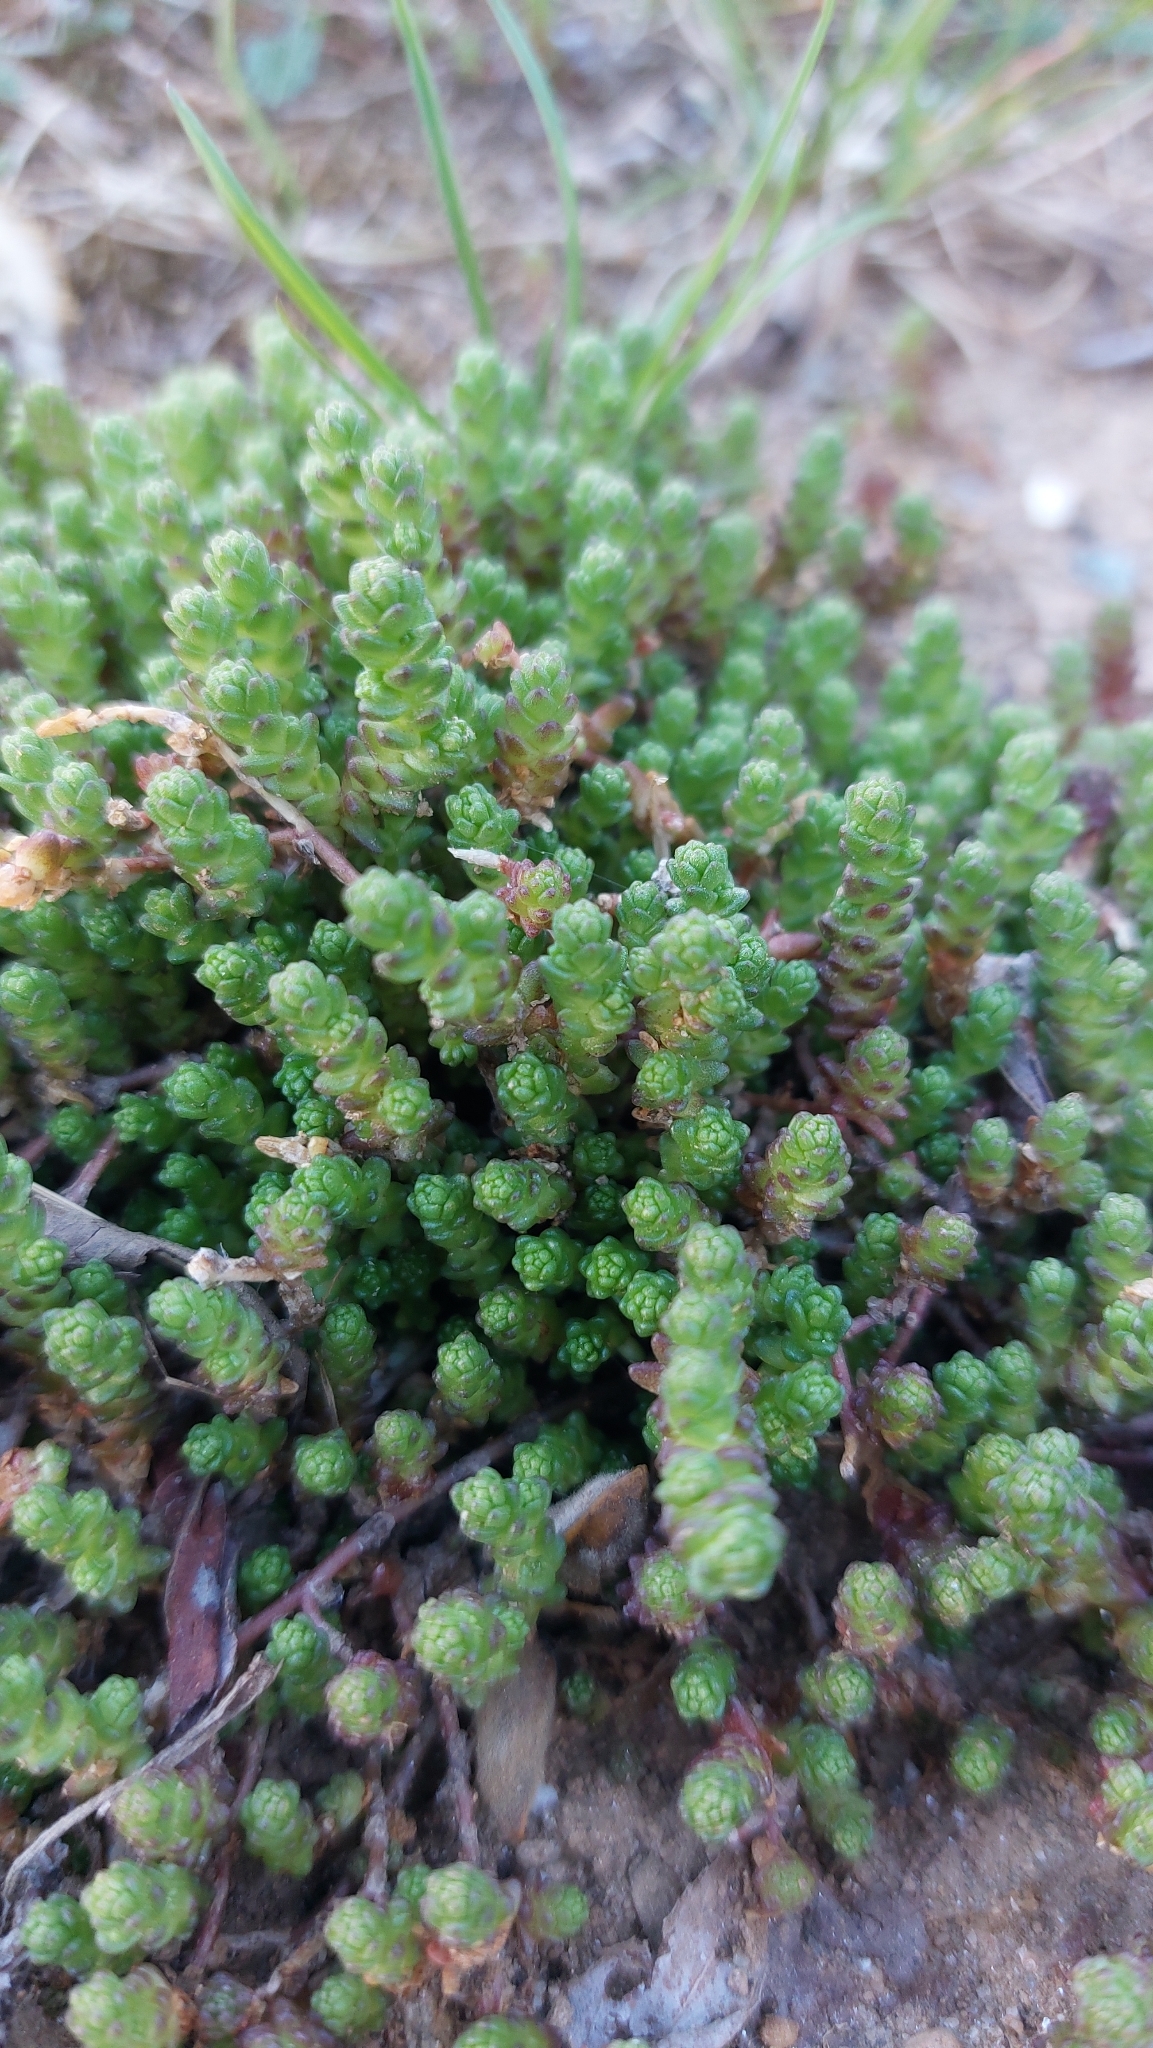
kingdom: Plantae
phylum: Tracheophyta
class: Magnoliopsida
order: Saxifragales
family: Crassulaceae
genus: Sedum
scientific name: Sedum acre
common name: Biting stonecrop
